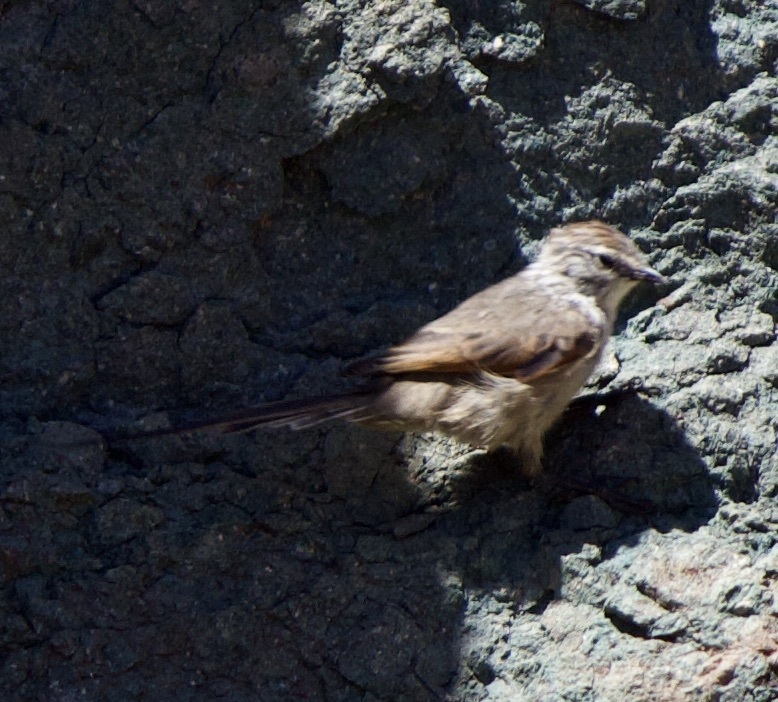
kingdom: Animalia
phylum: Chordata
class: Aves
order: Passeriformes
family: Furnariidae
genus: Leptasthenura
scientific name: Leptasthenura aegithaloides
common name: Plain-mantled tit-spinetail
